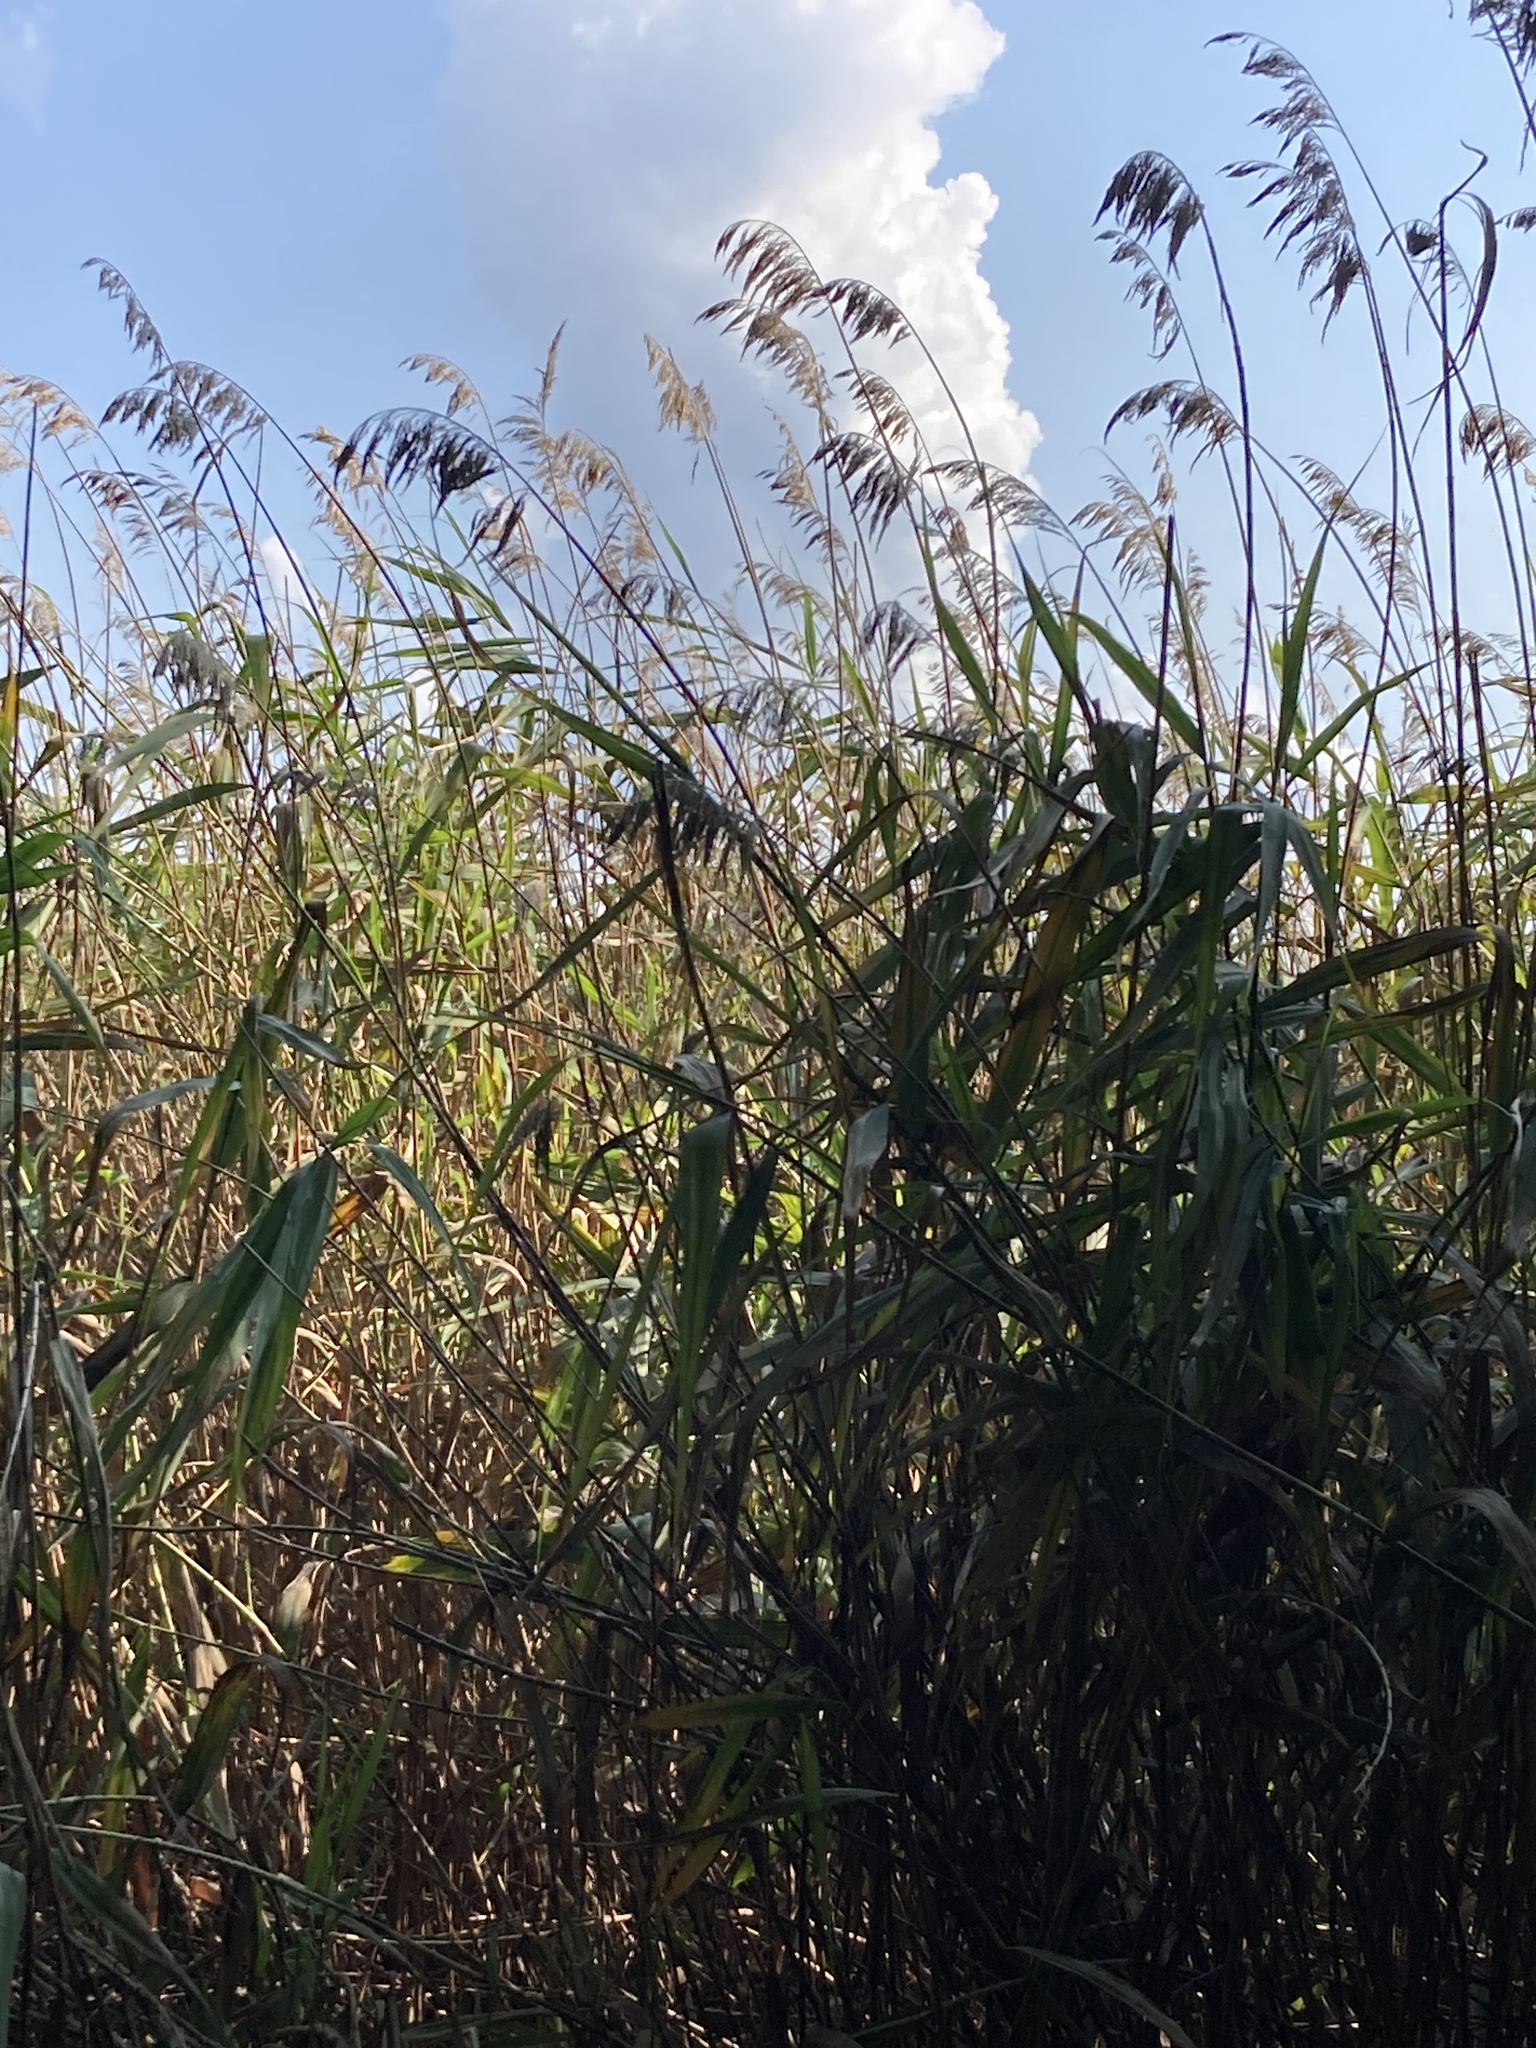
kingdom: Plantae
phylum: Tracheophyta
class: Liliopsida
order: Poales
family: Poaceae
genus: Phragmites
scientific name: Phragmites australis
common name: Common reed
